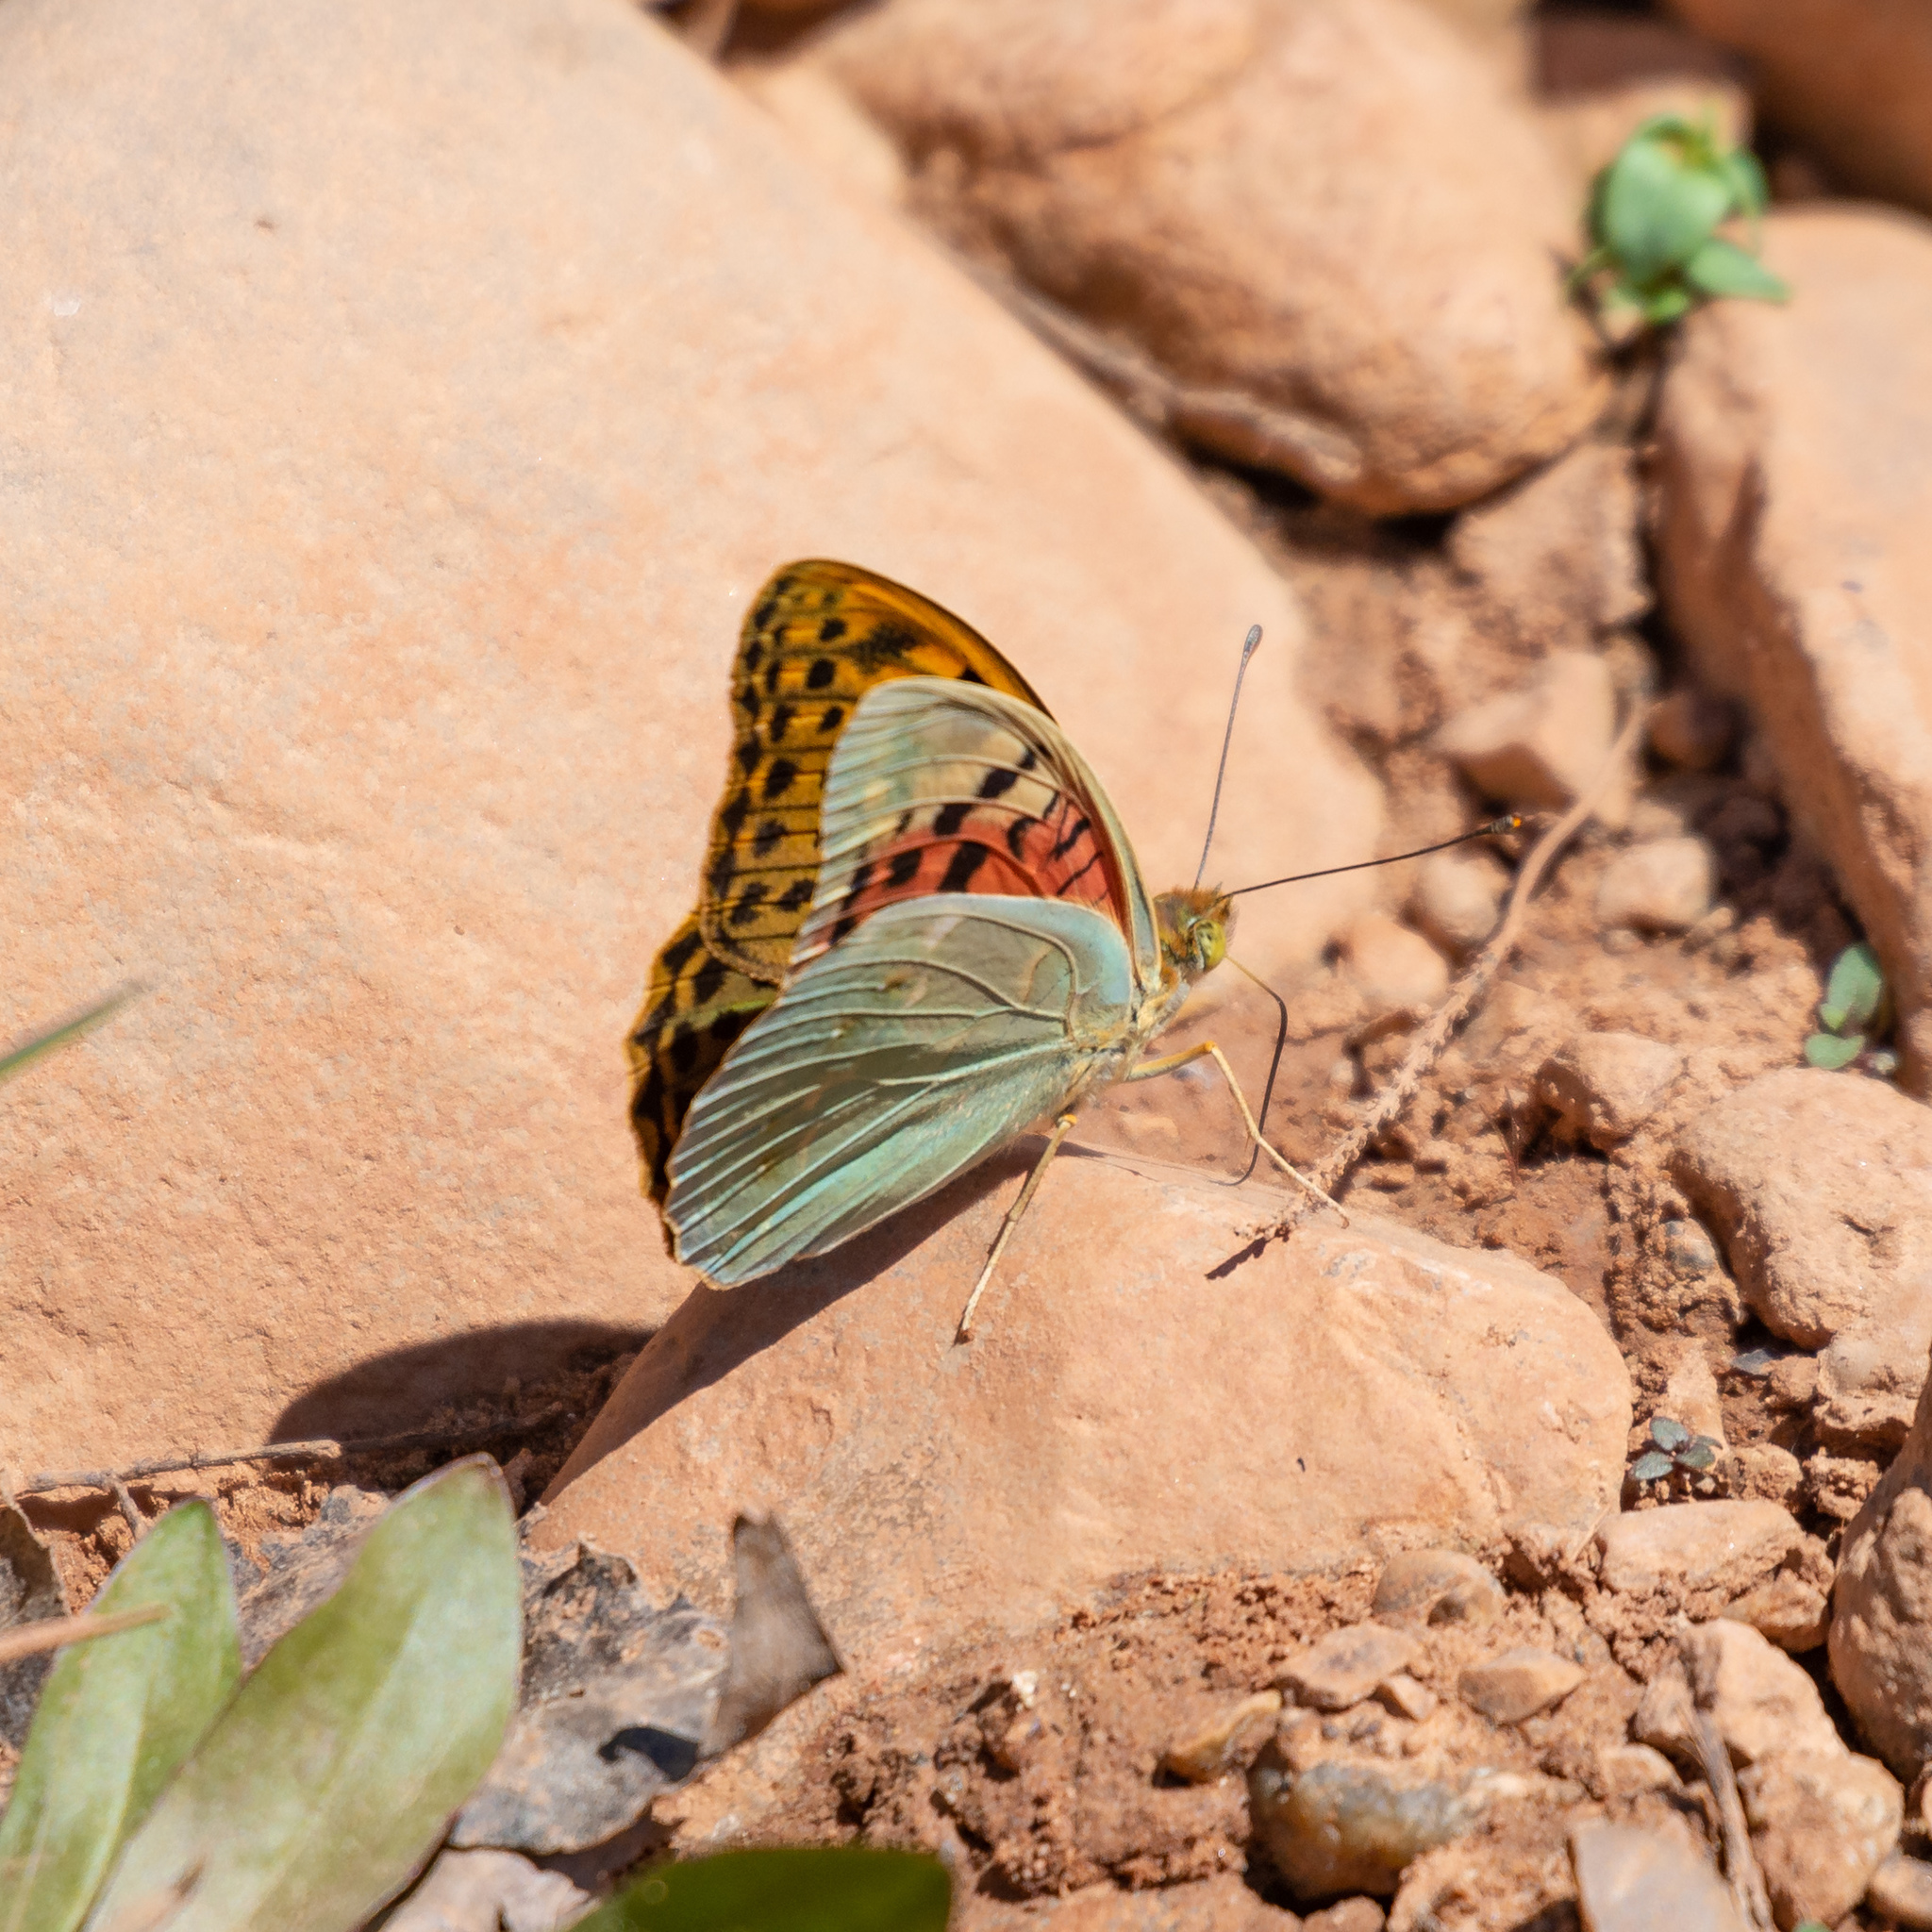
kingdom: Animalia
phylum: Arthropoda
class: Insecta
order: Lepidoptera
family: Nymphalidae
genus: Damora
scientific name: Damora pandora
